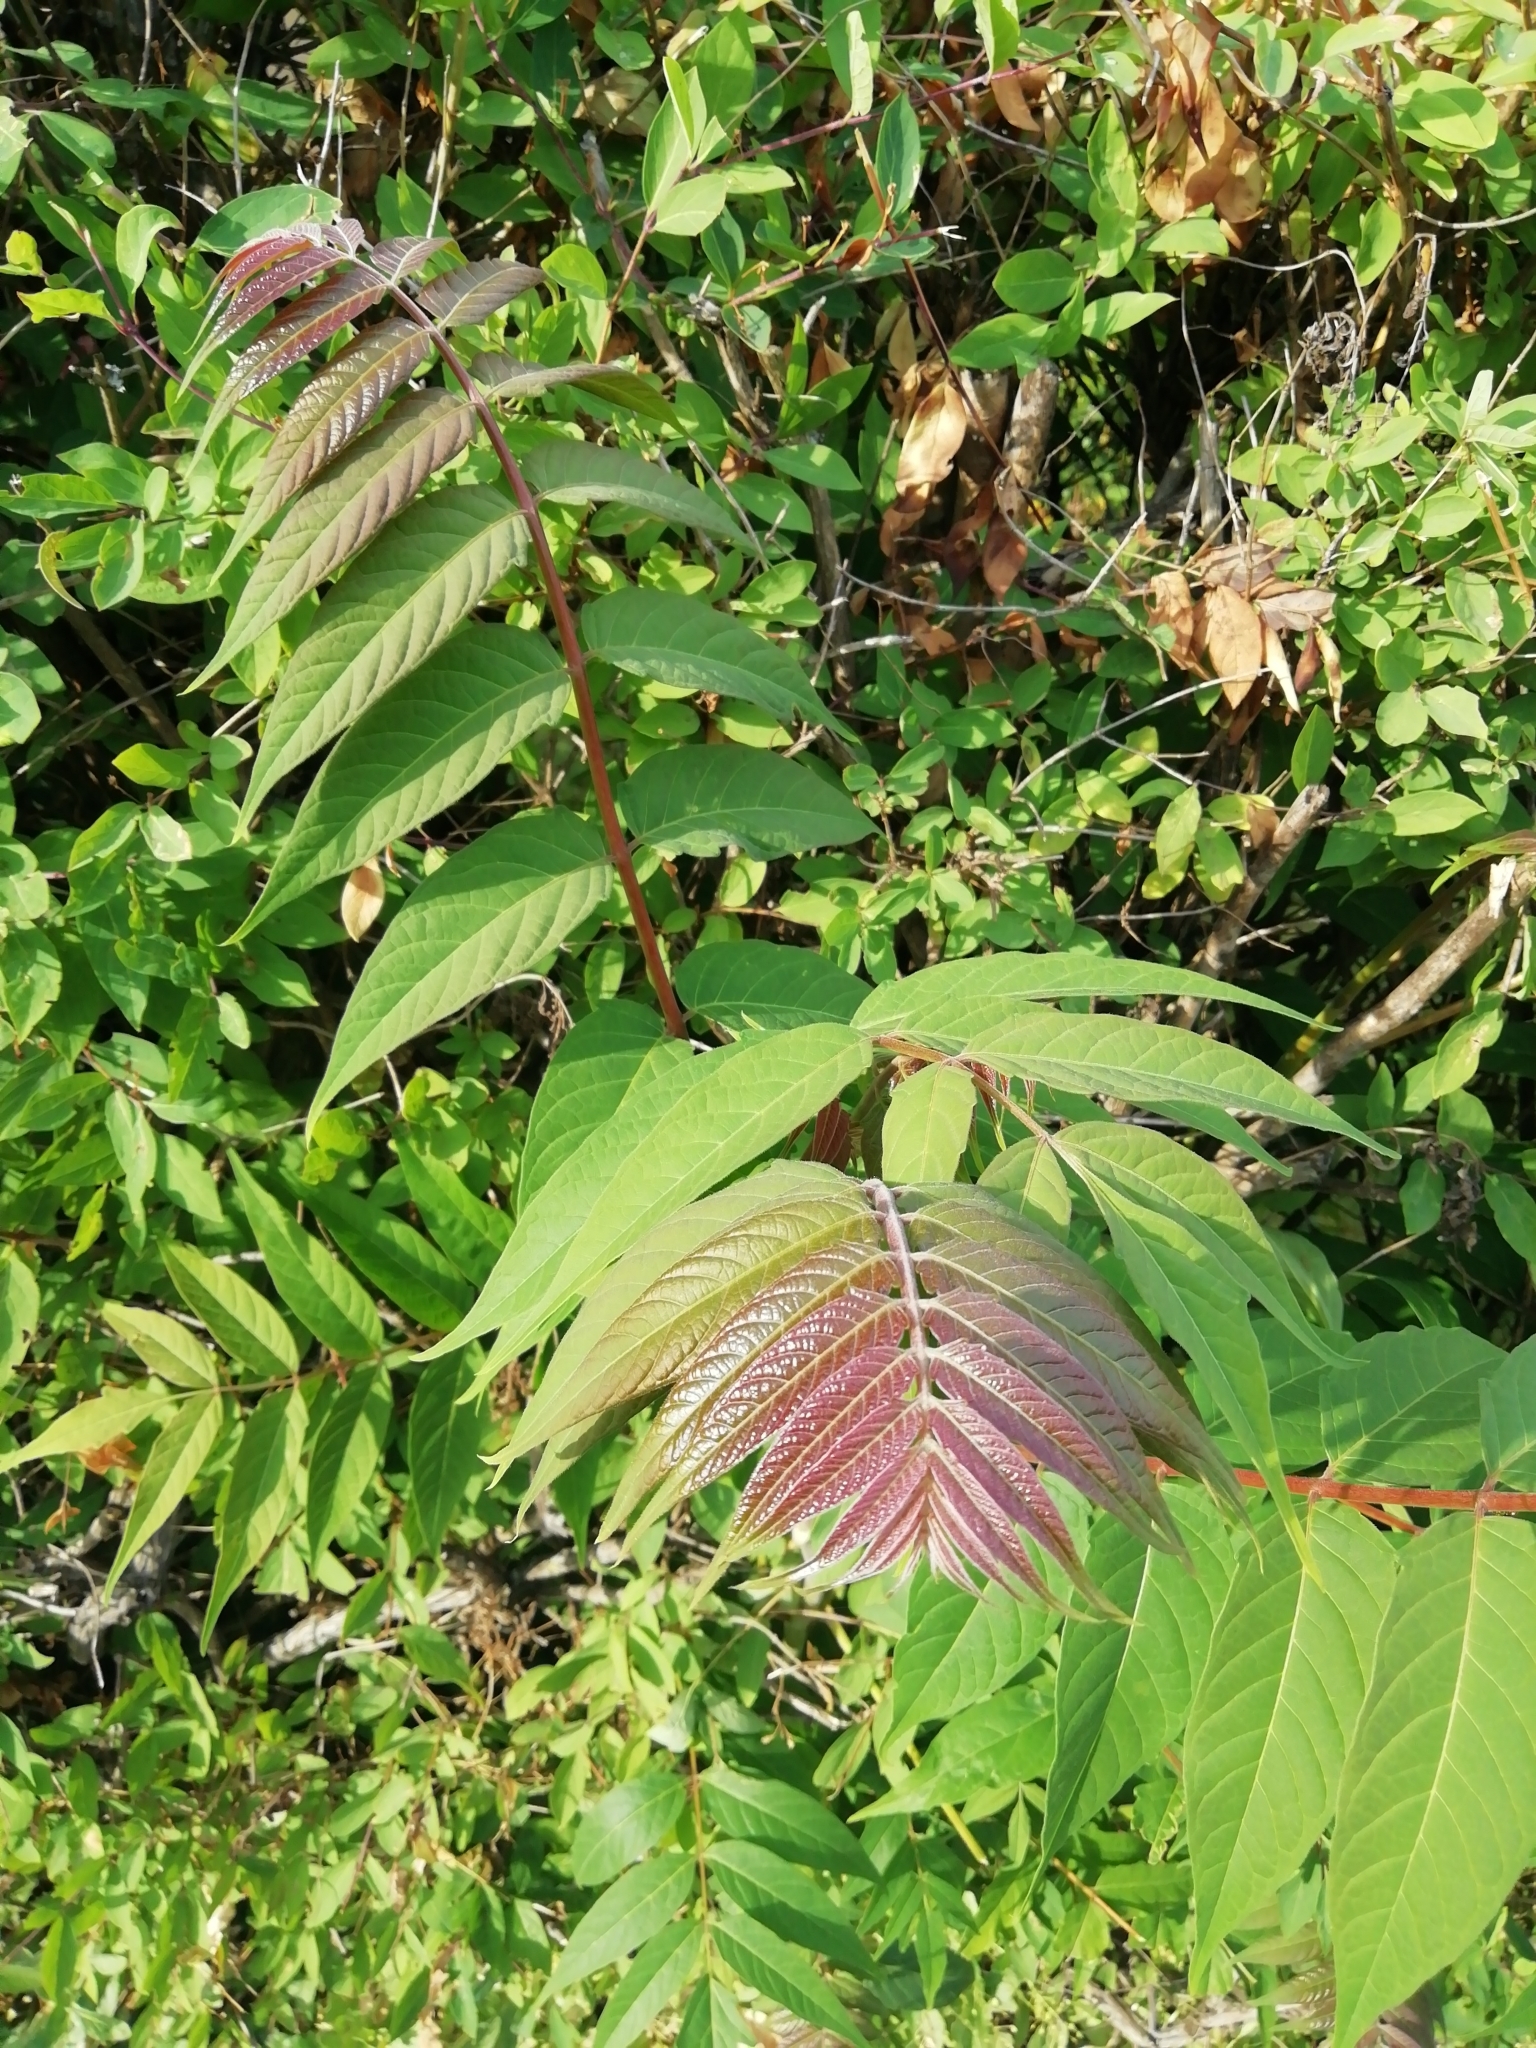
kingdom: Plantae
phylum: Tracheophyta
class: Magnoliopsida
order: Sapindales
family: Simaroubaceae
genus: Ailanthus
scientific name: Ailanthus altissima
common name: Tree-of-heaven
